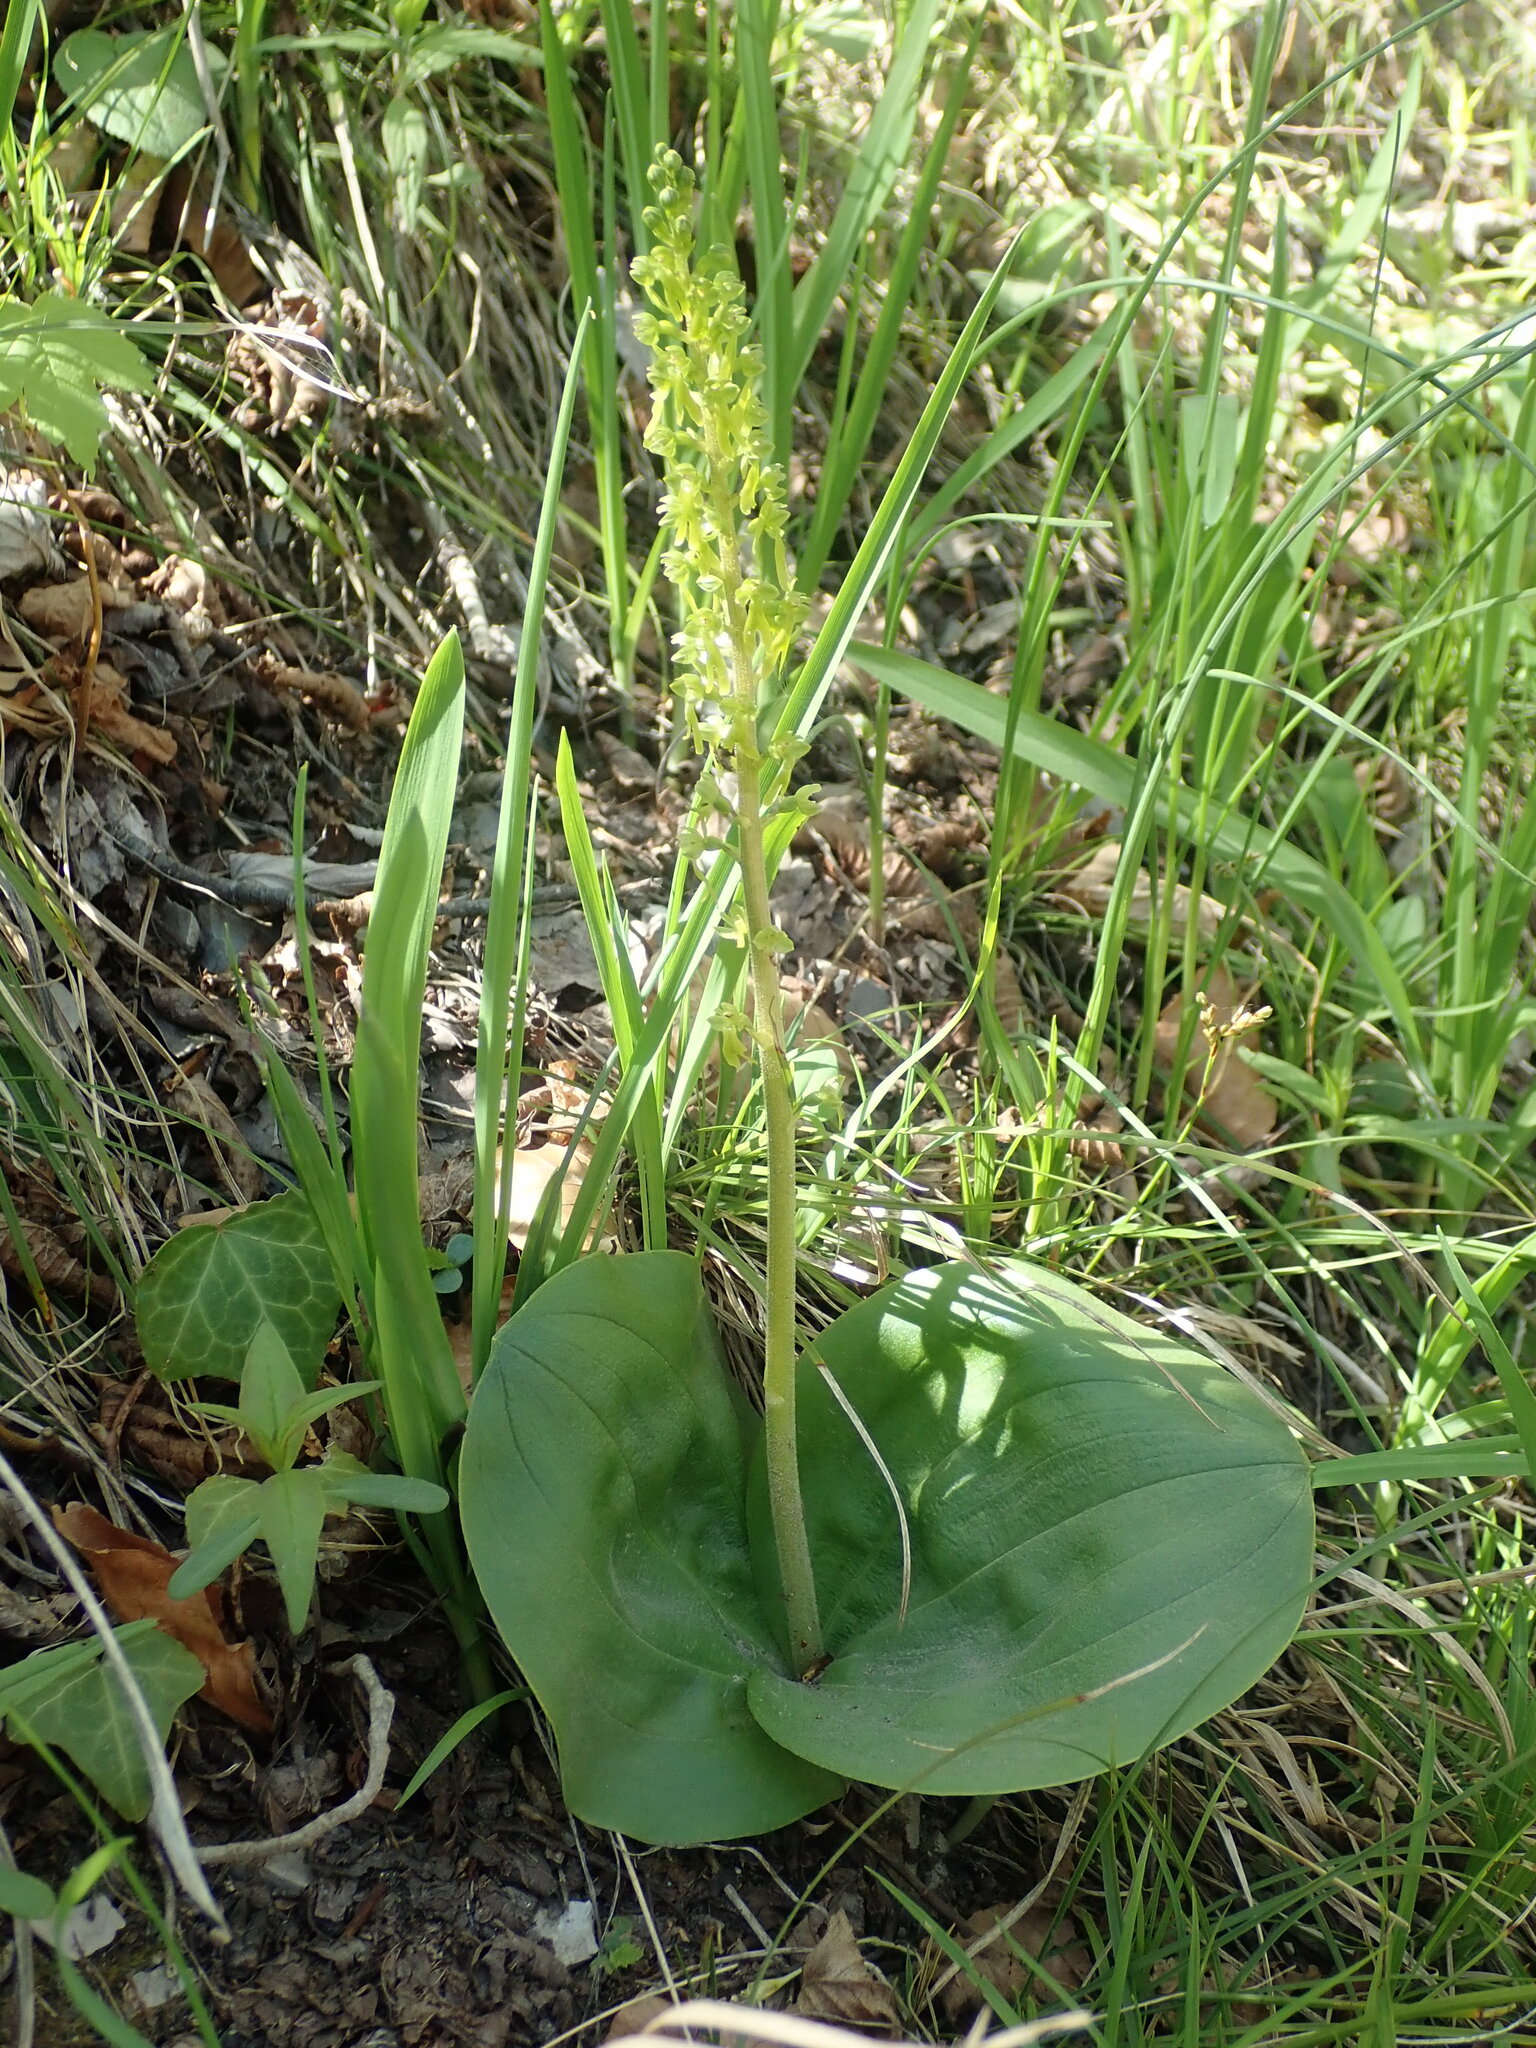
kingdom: Plantae
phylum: Tracheophyta
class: Liliopsida
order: Asparagales
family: Orchidaceae
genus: Neottia
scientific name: Neottia ovata
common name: Common twayblade
